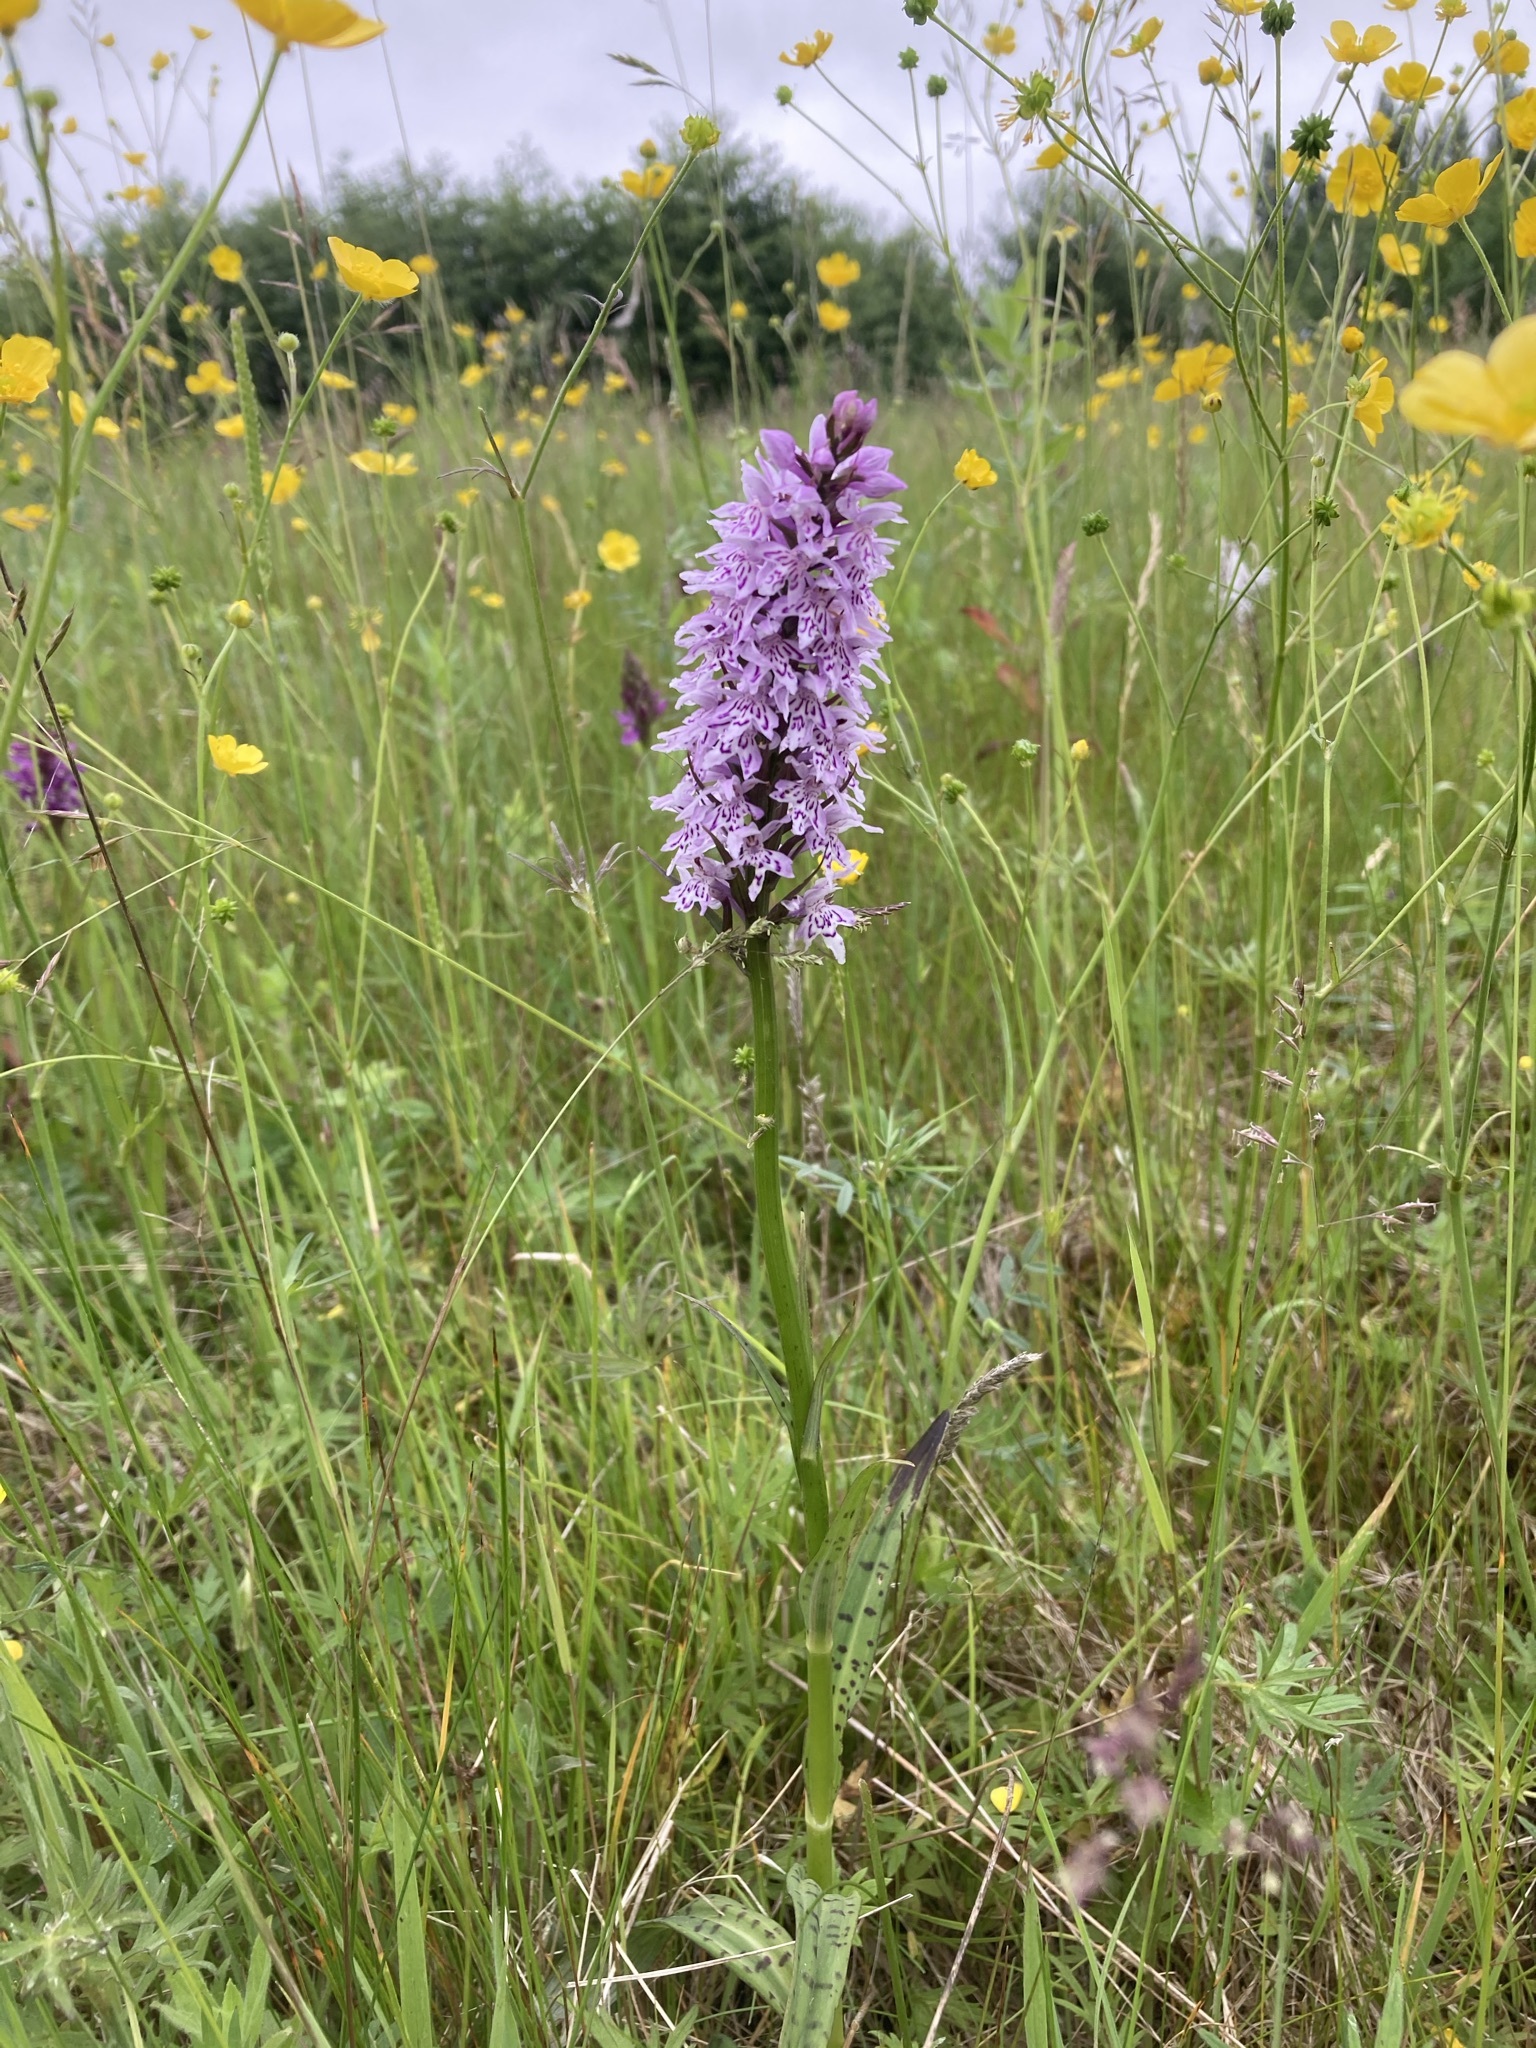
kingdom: Plantae
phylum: Tracheophyta
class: Liliopsida
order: Asparagales
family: Orchidaceae
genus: Dactylorhiza
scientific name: Dactylorhiza maculata
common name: Heath spotted-orchid
